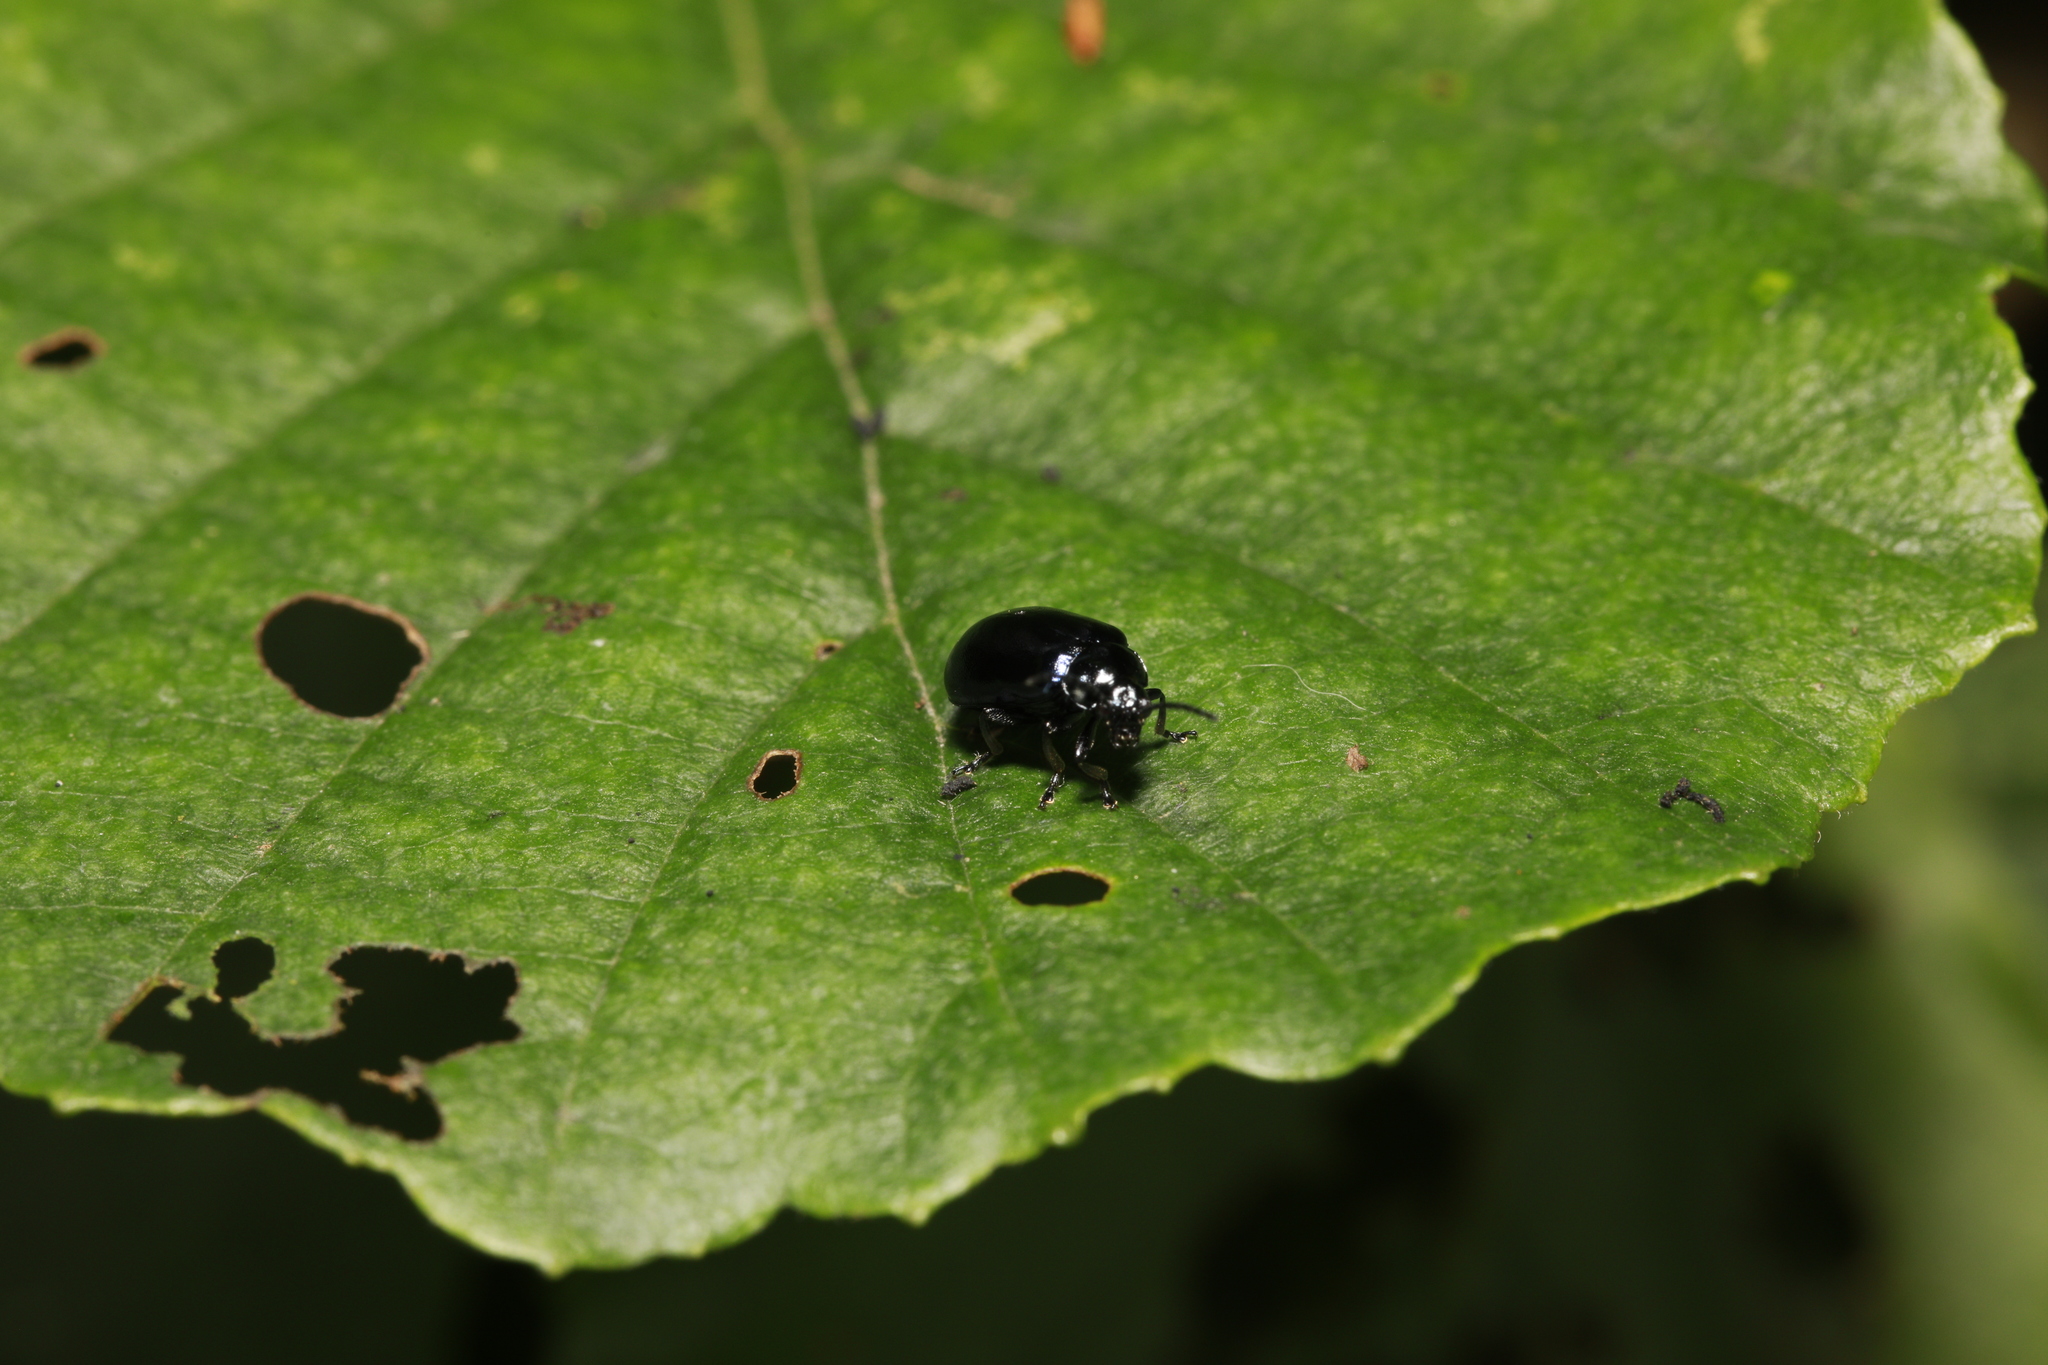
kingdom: Animalia
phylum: Arthropoda
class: Insecta
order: Coleoptera
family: Chrysomelidae
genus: Agelastica
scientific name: Agelastica alni
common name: Alder leaf beetle
